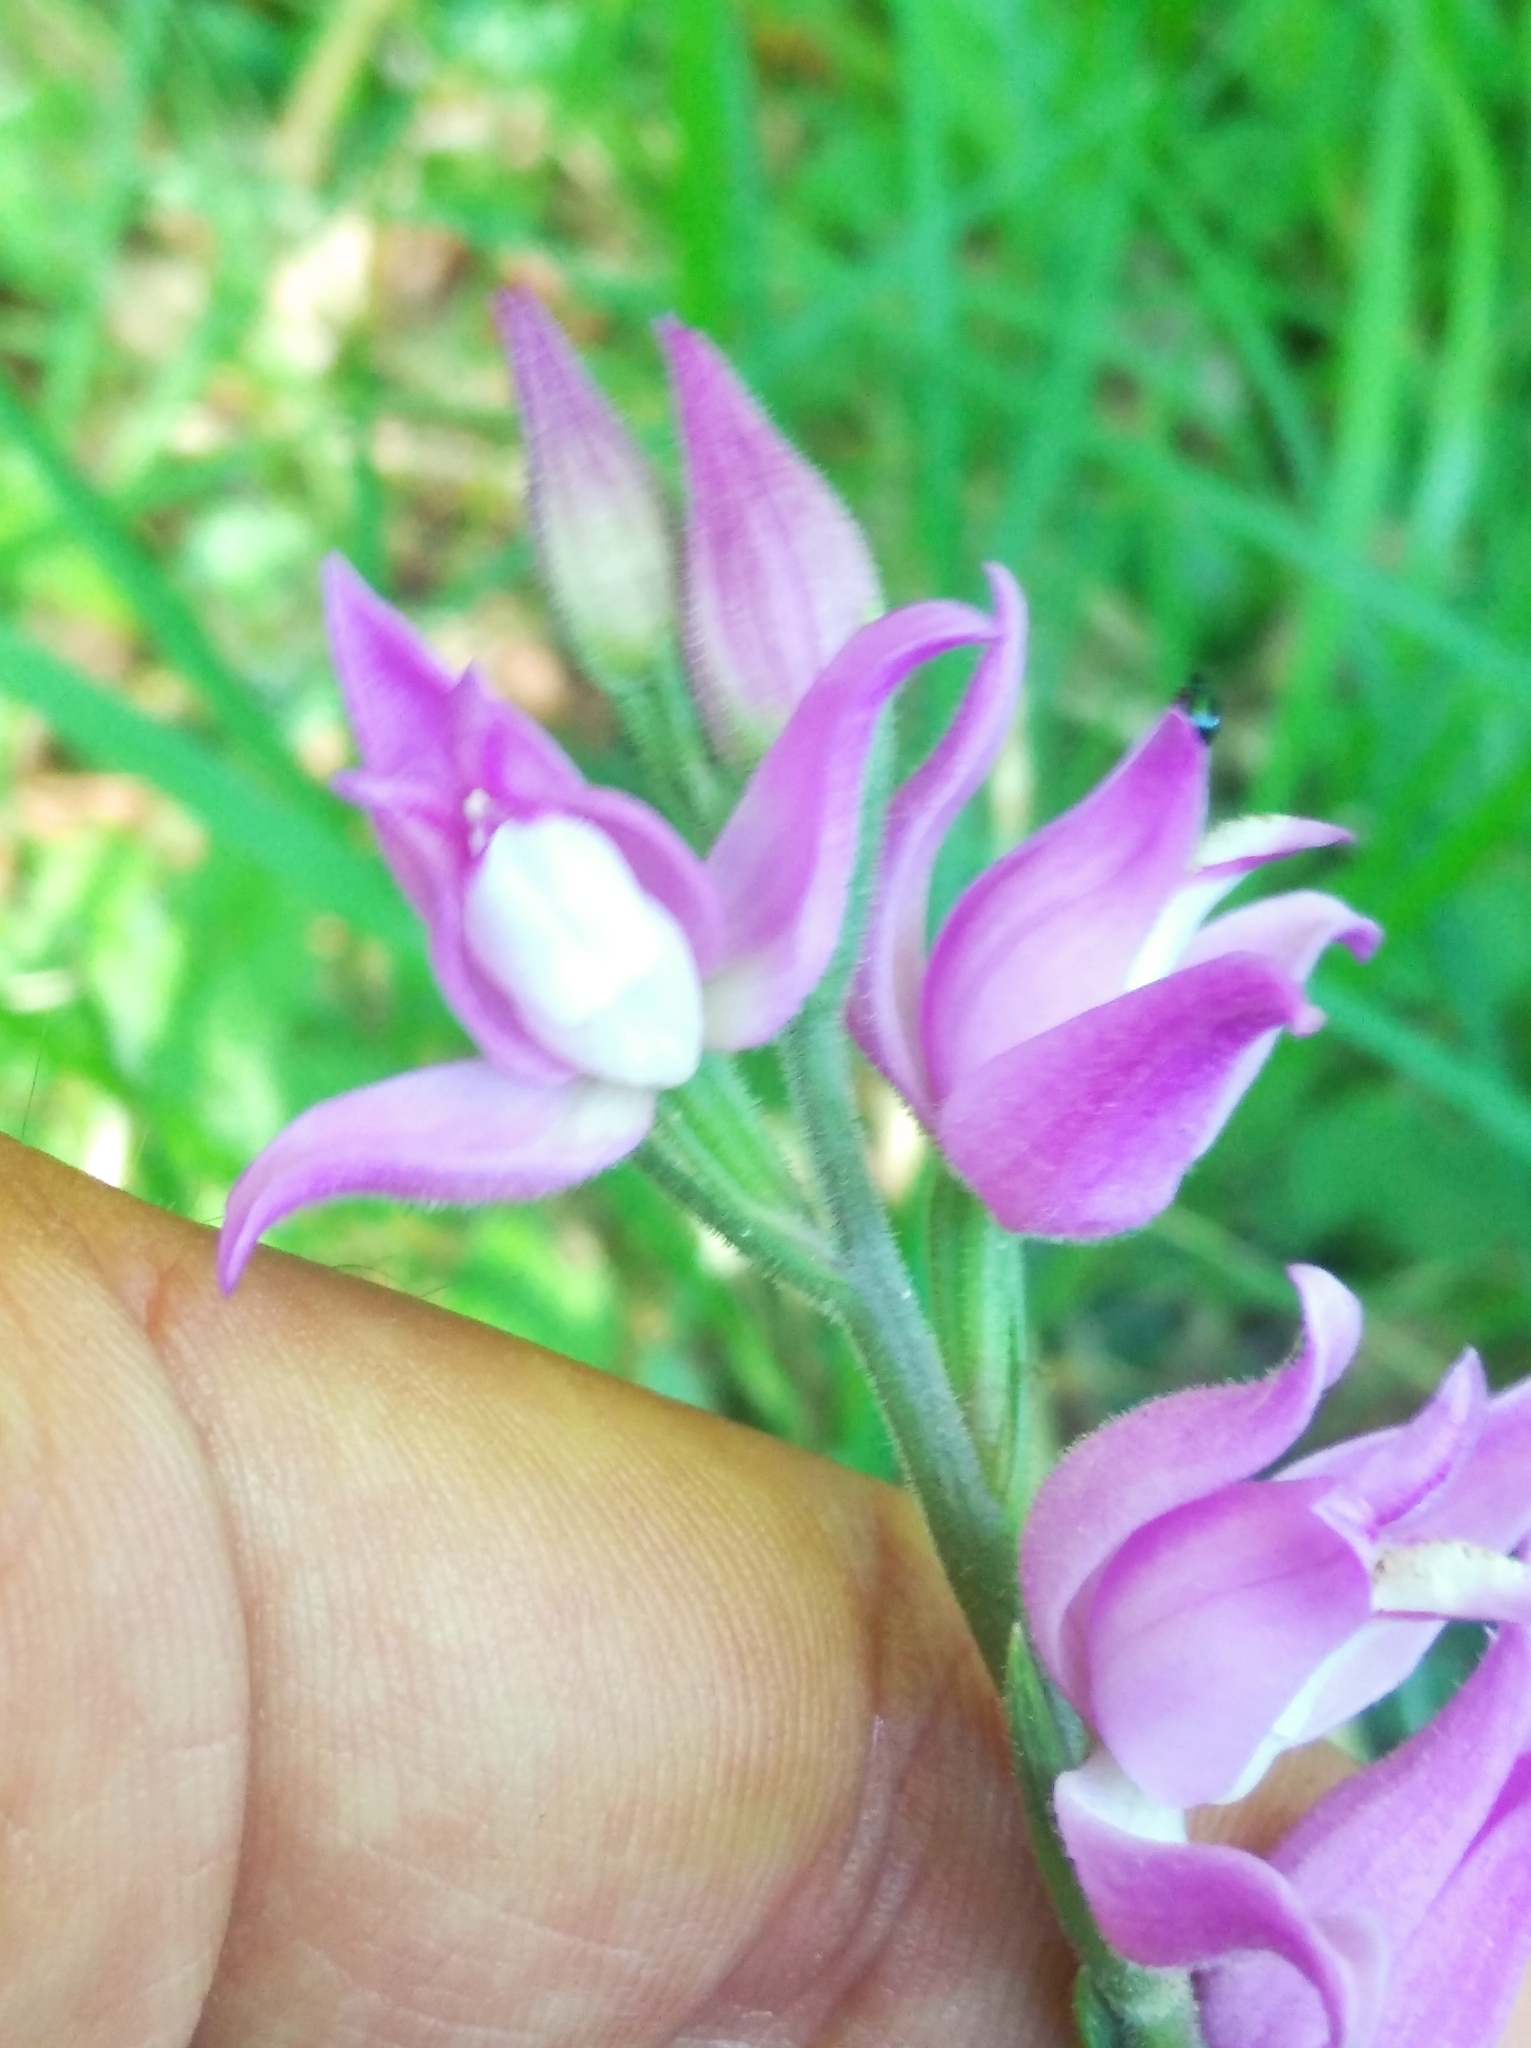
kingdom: Plantae
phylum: Tracheophyta
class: Liliopsida
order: Asparagales
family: Orchidaceae
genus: Cephalanthera
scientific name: Cephalanthera rubra
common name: Red helleborine
